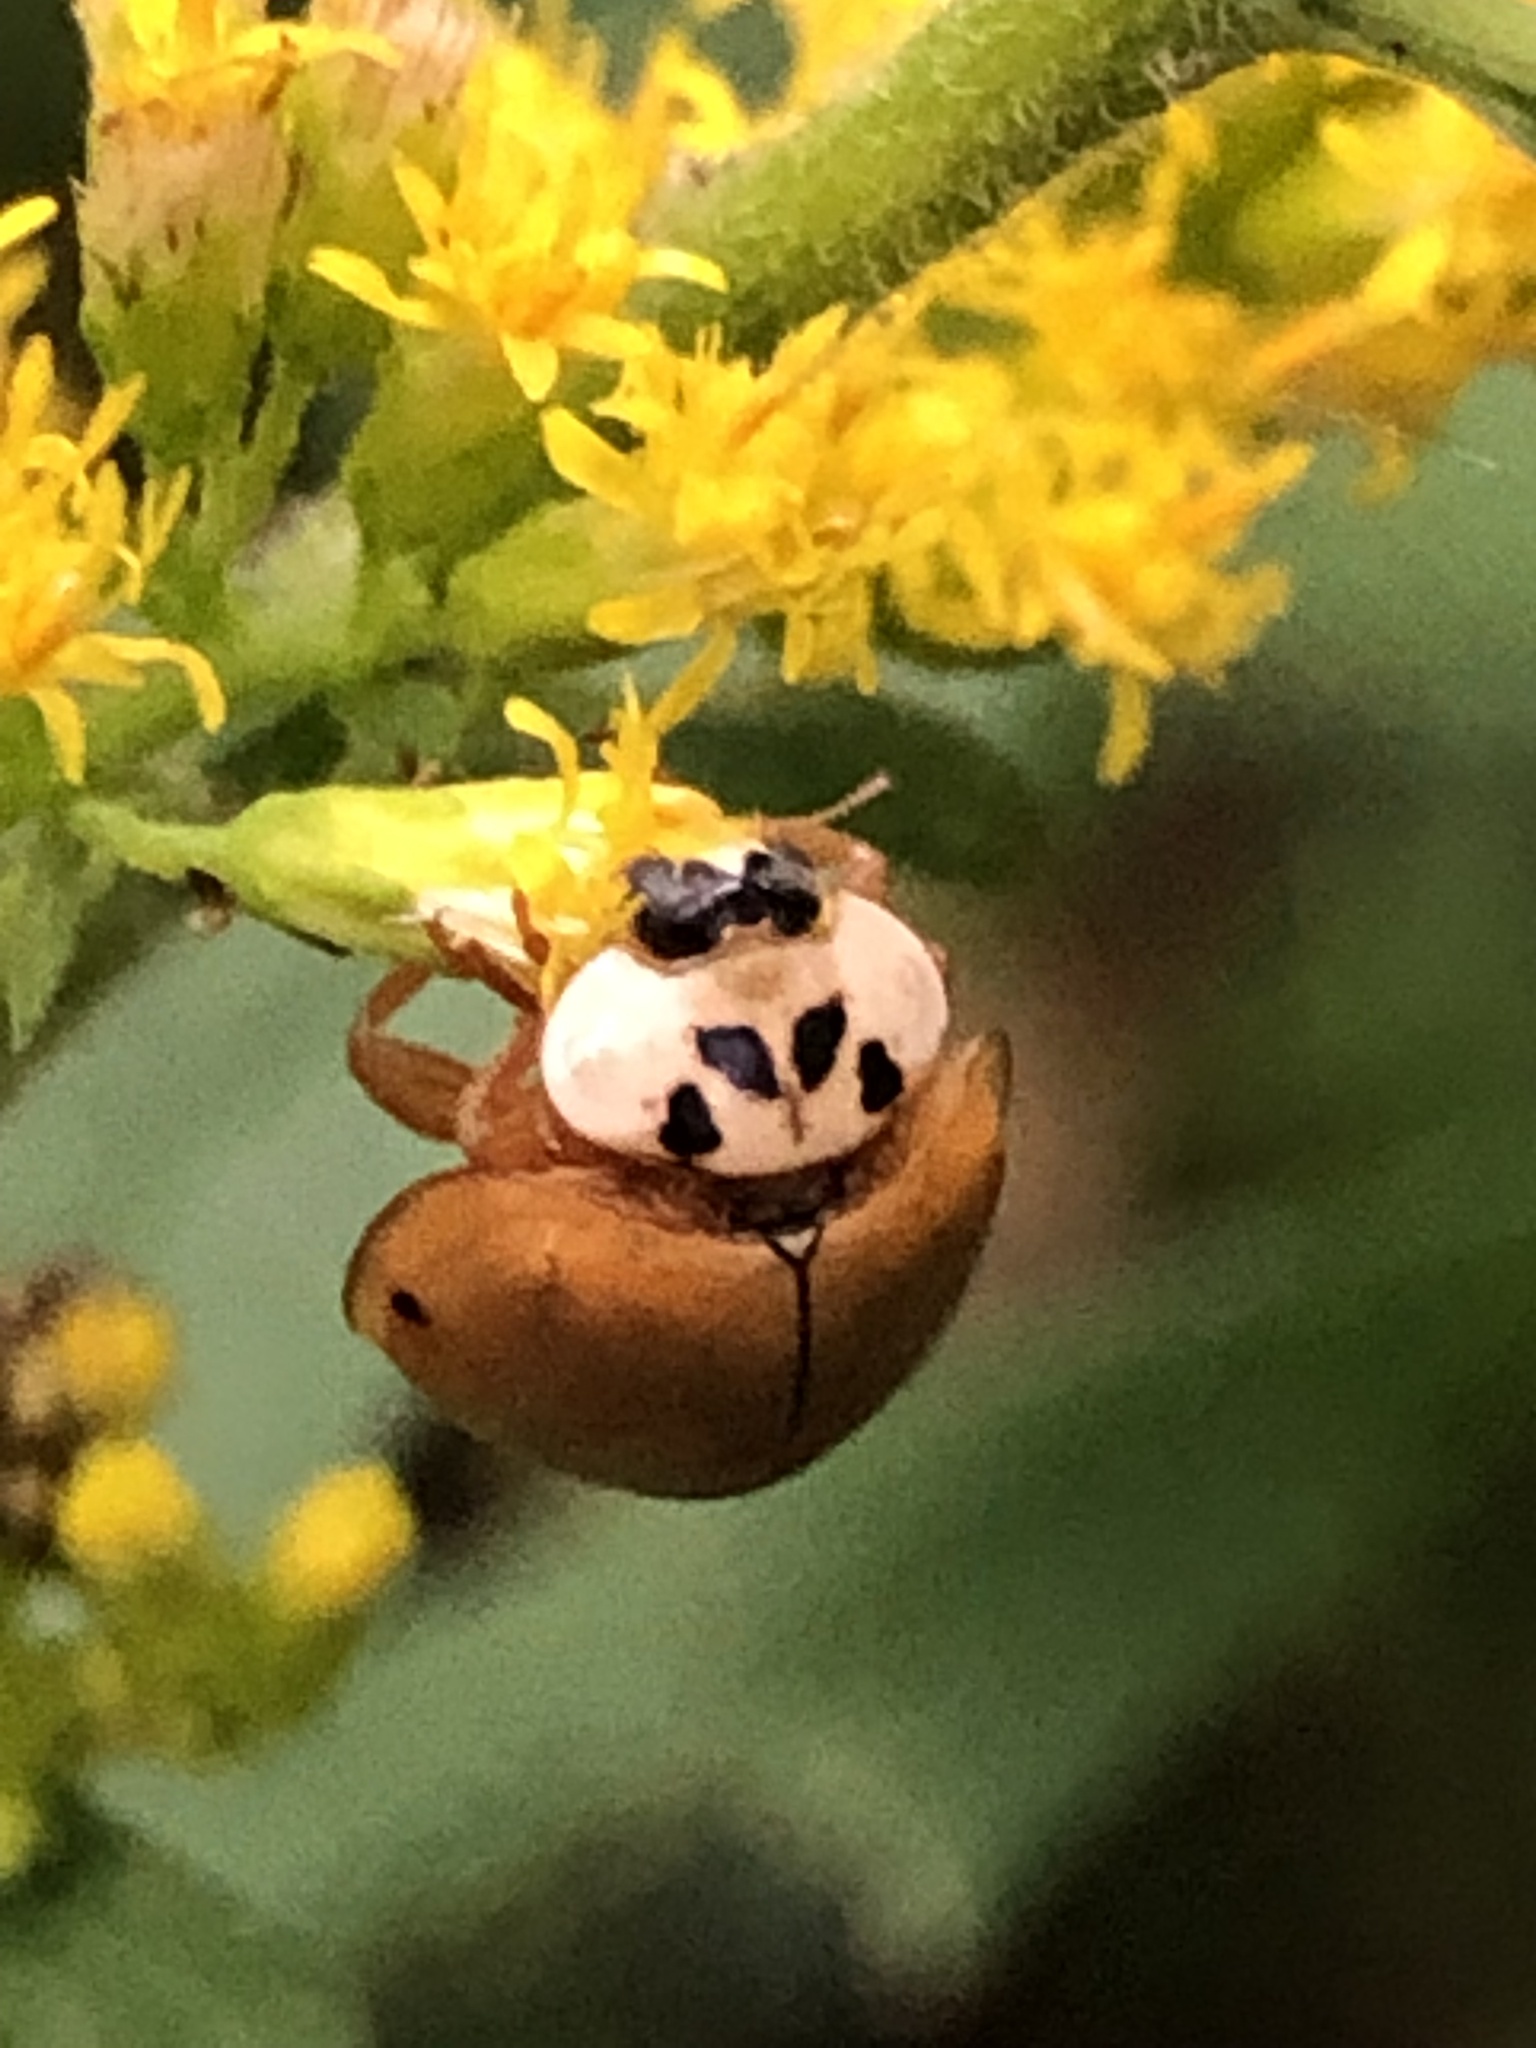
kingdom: Animalia
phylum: Arthropoda
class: Insecta
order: Coleoptera
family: Coccinellidae
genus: Harmonia
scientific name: Harmonia axyridis
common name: Harlequin ladybird
